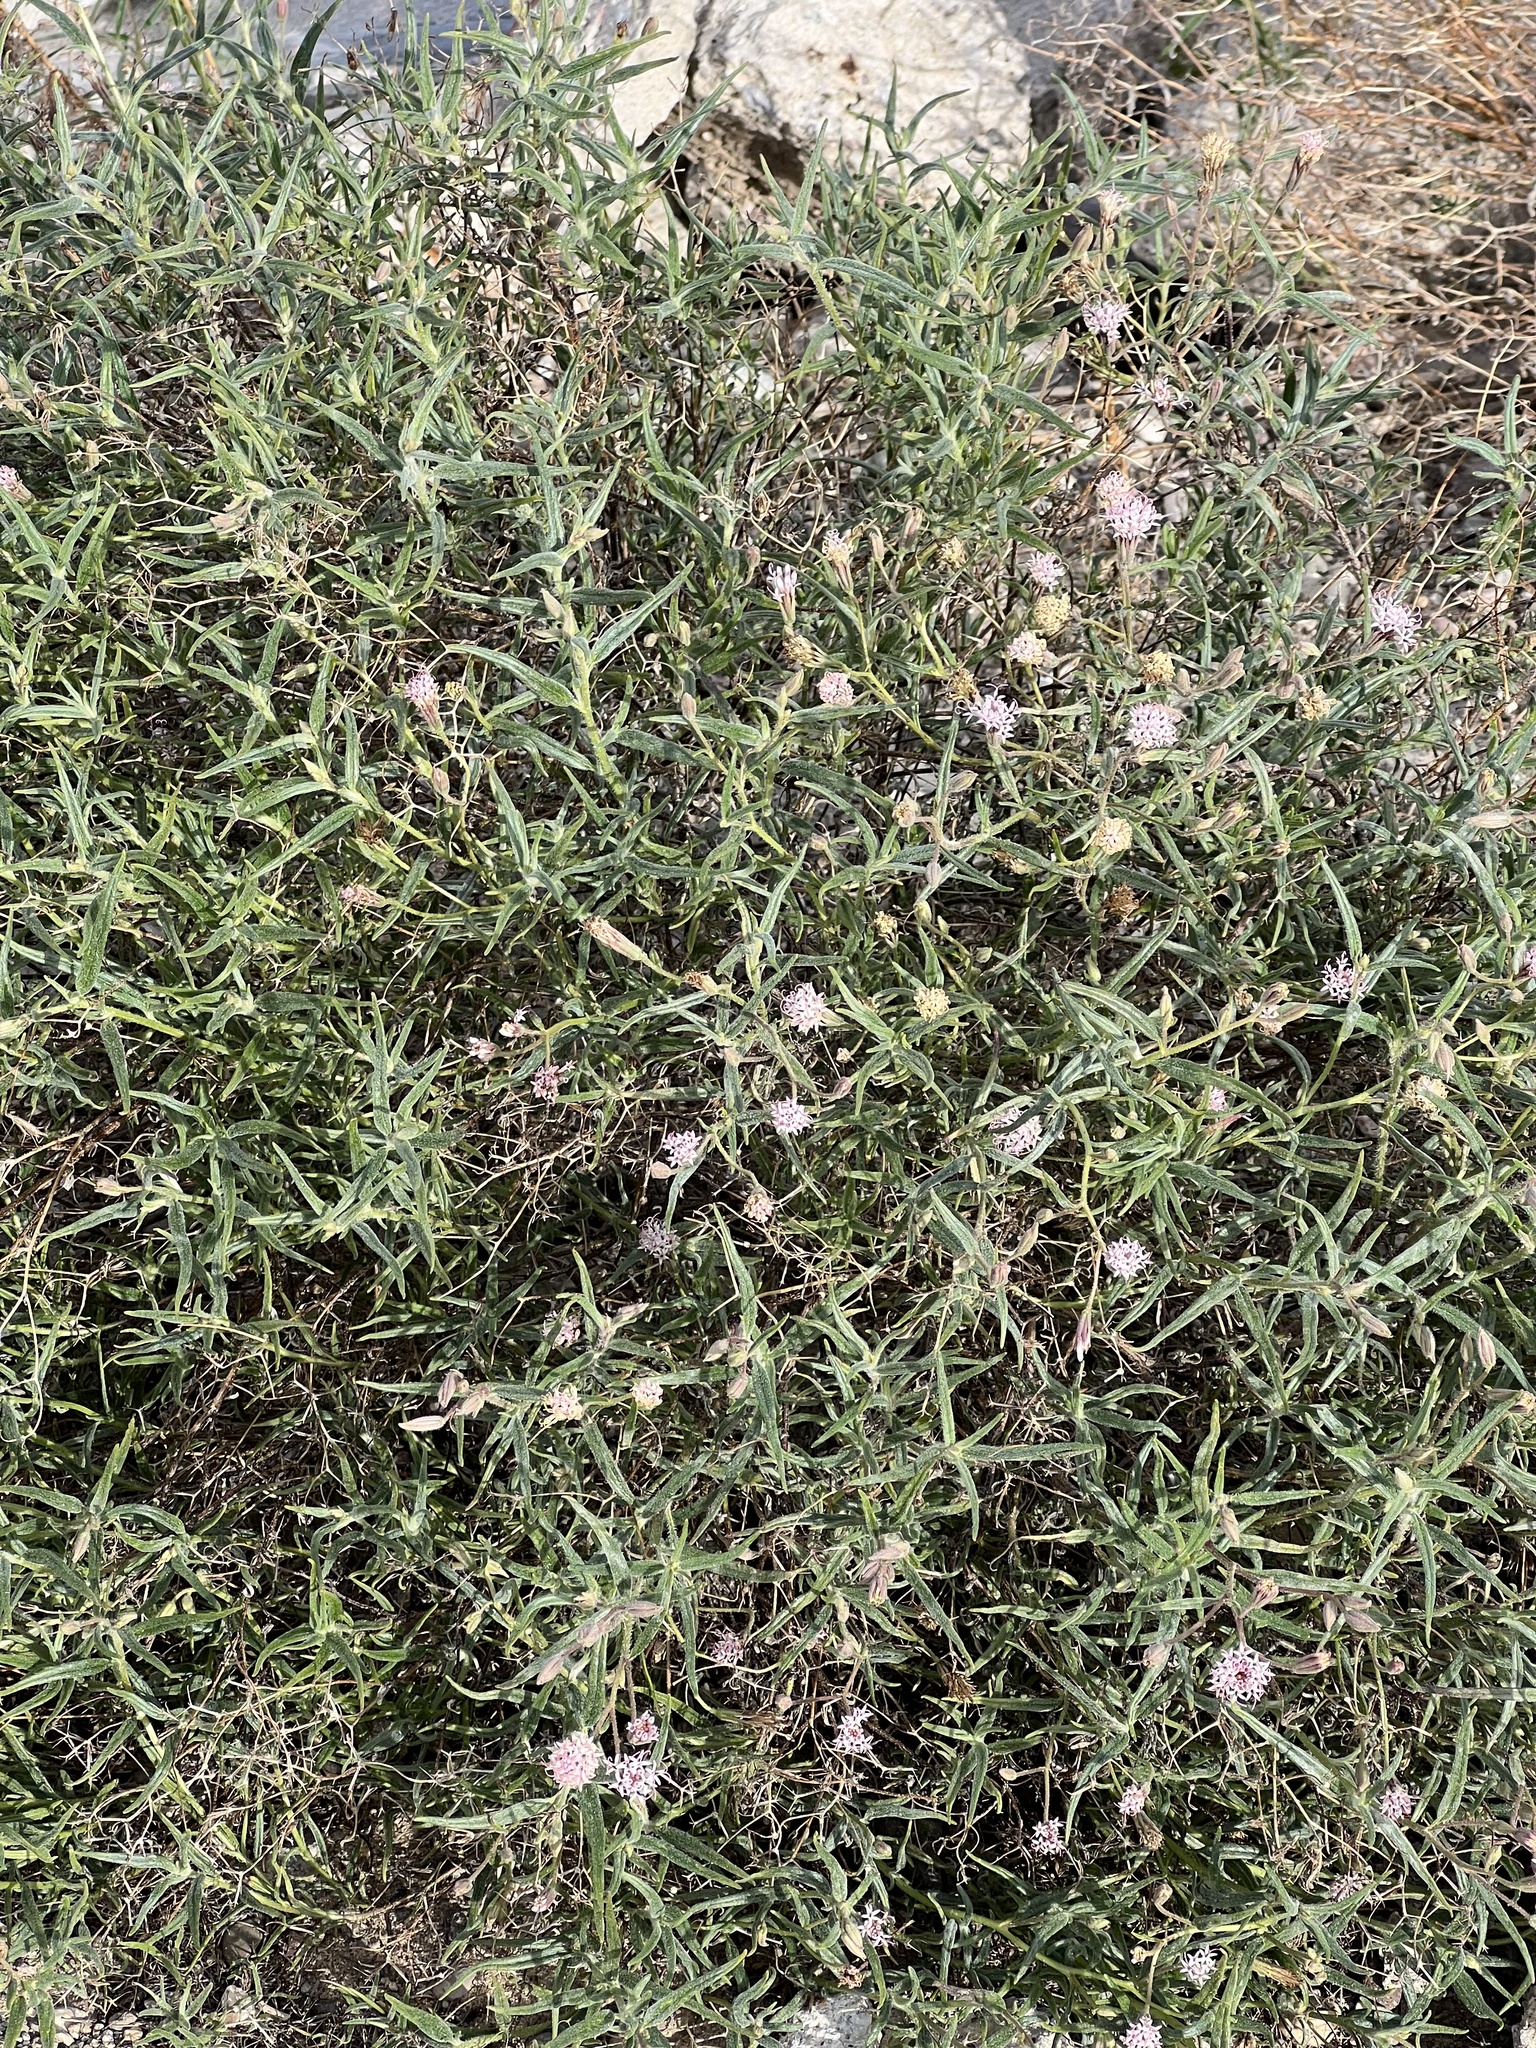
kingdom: Plantae
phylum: Tracheophyta
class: Magnoliopsida
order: Asterales
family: Asteraceae
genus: Palafoxia
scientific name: Palafoxia arida
